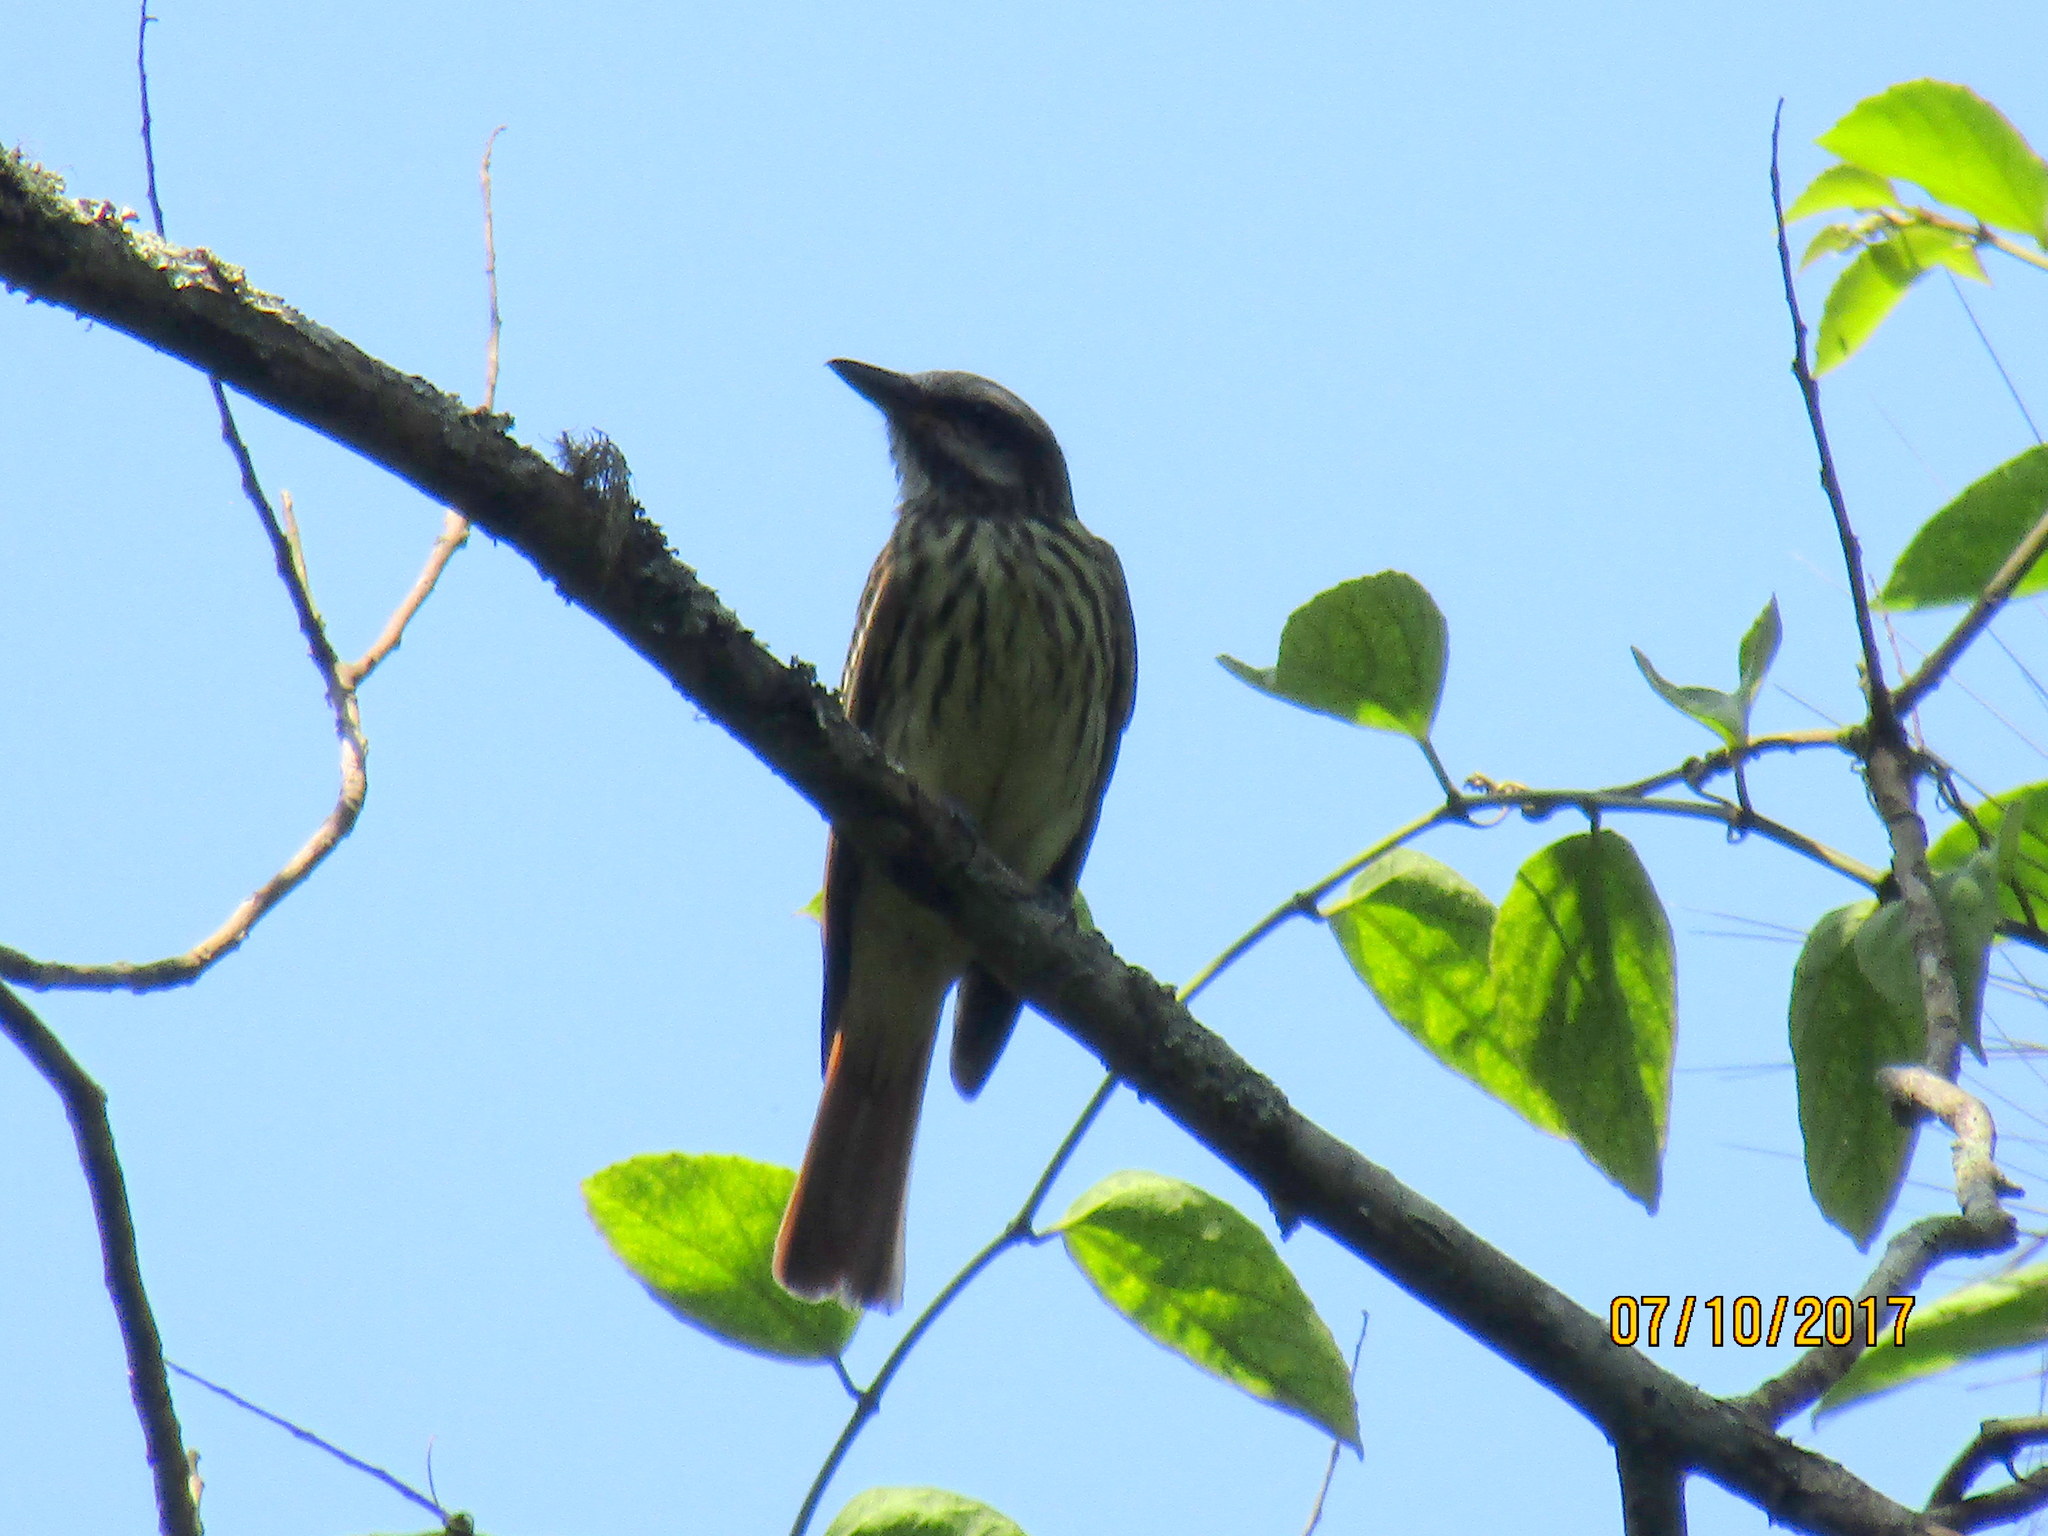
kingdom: Animalia
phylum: Chordata
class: Aves
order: Passeriformes
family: Tyrannidae
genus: Myiodynastes
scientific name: Myiodynastes luteiventris
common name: Sulphur-bellied flycatcher
